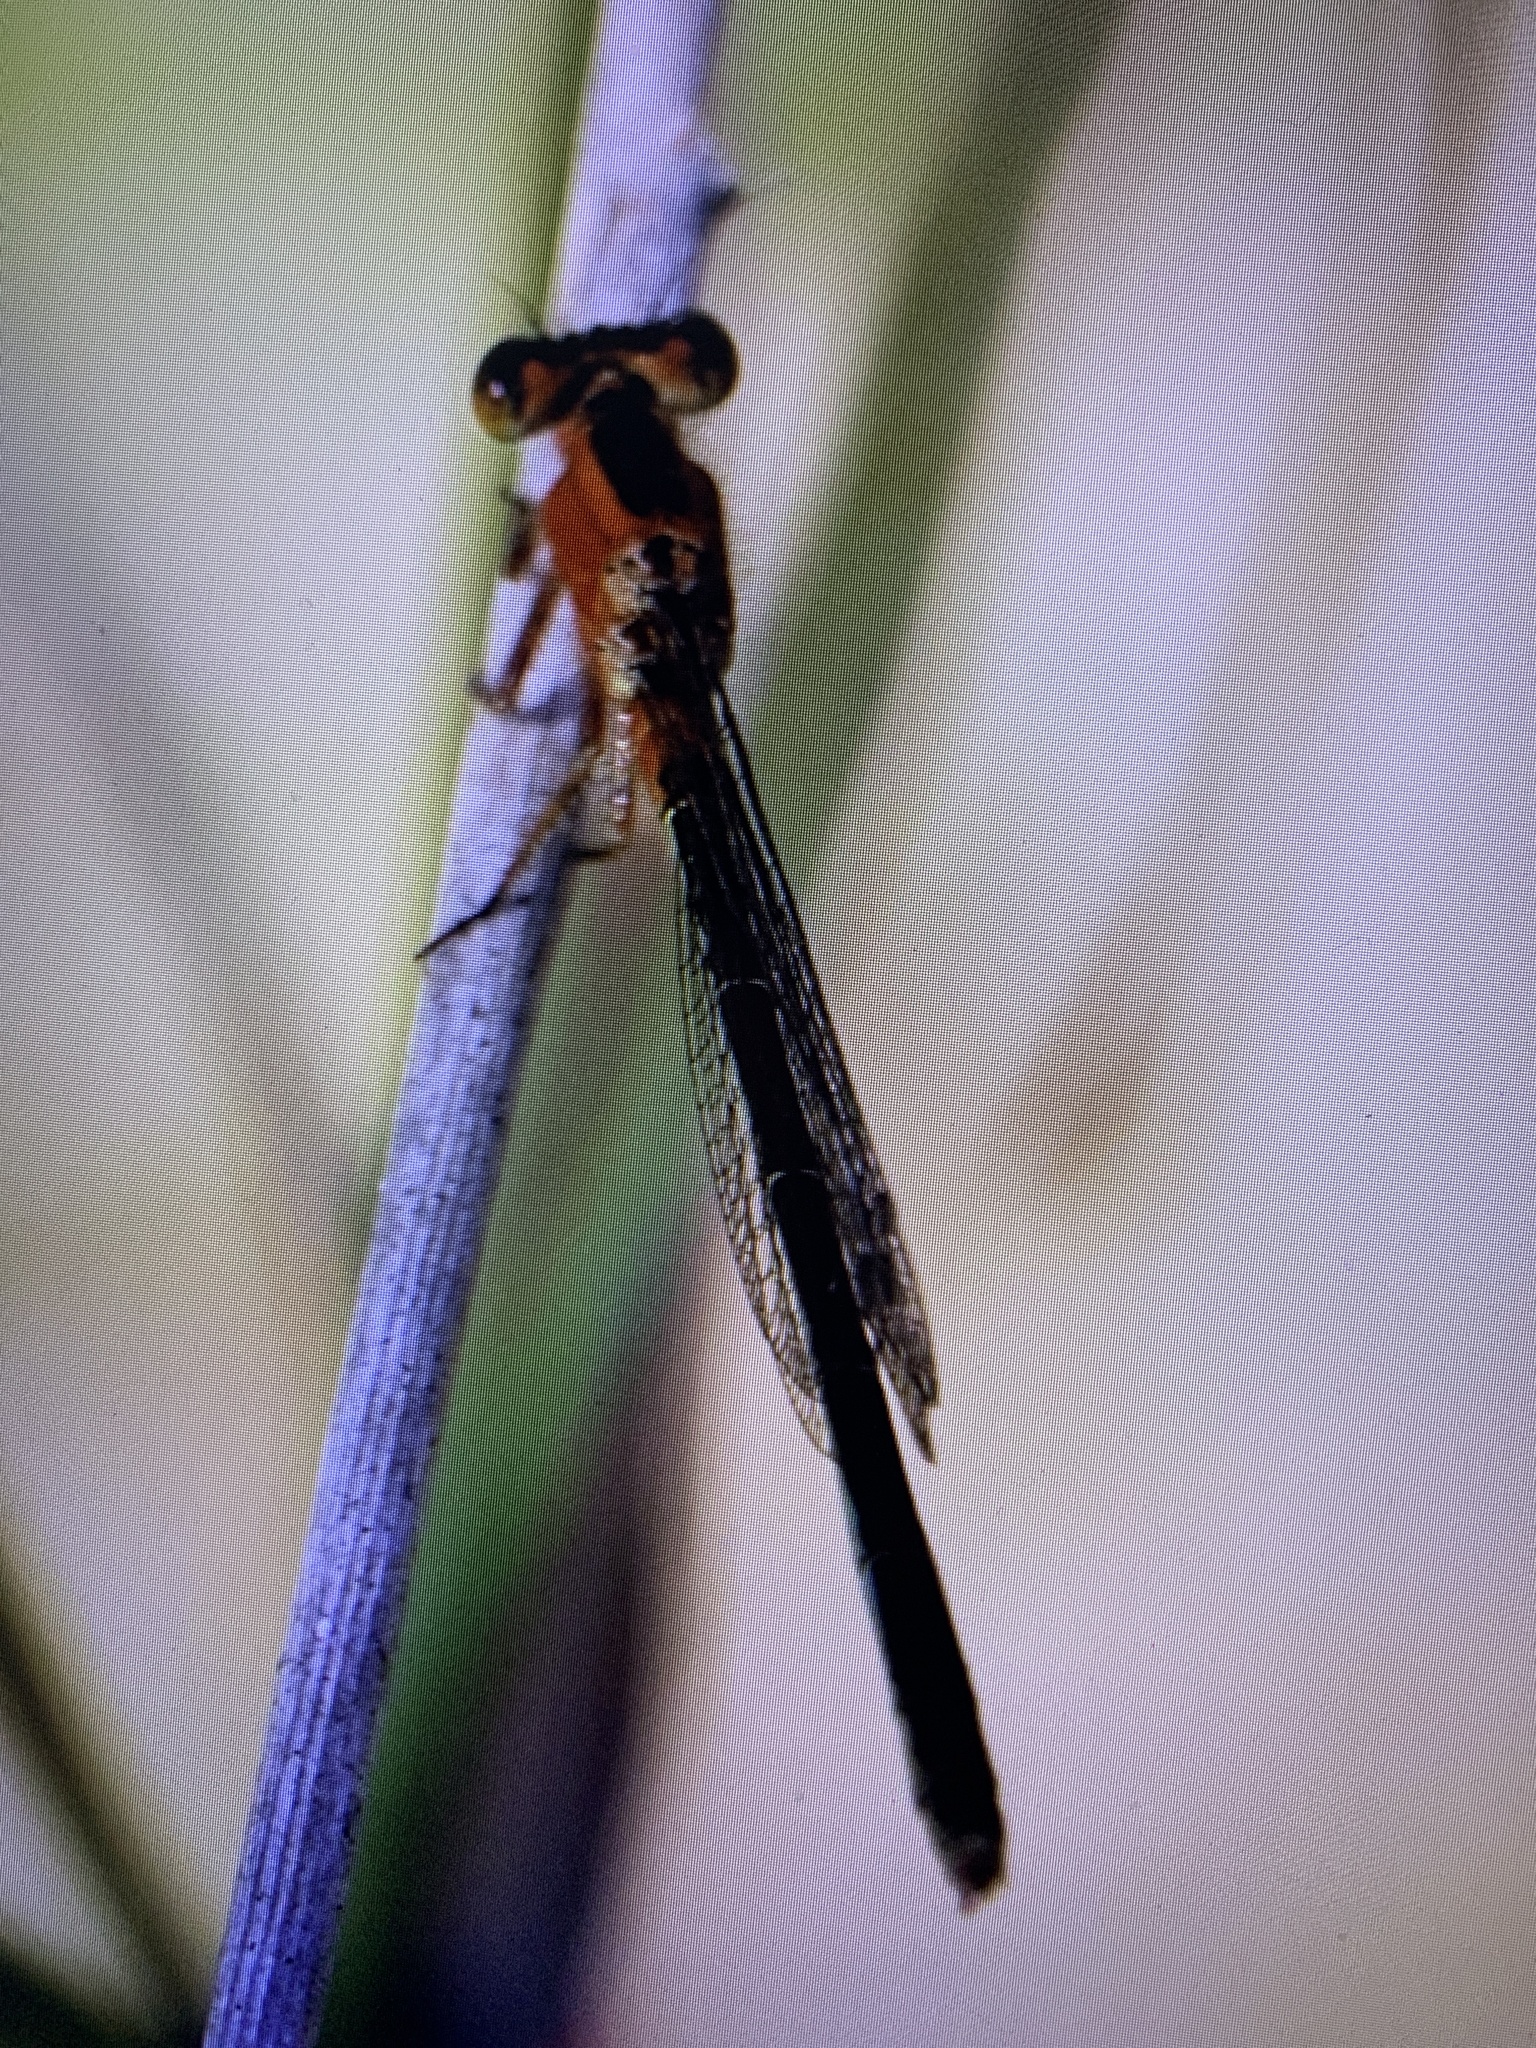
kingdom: Animalia
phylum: Arthropoda
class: Insecta
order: Odonata
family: Coenagrionidae
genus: Ischnura
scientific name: Ischnura ramburii
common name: Rambur's forktail
